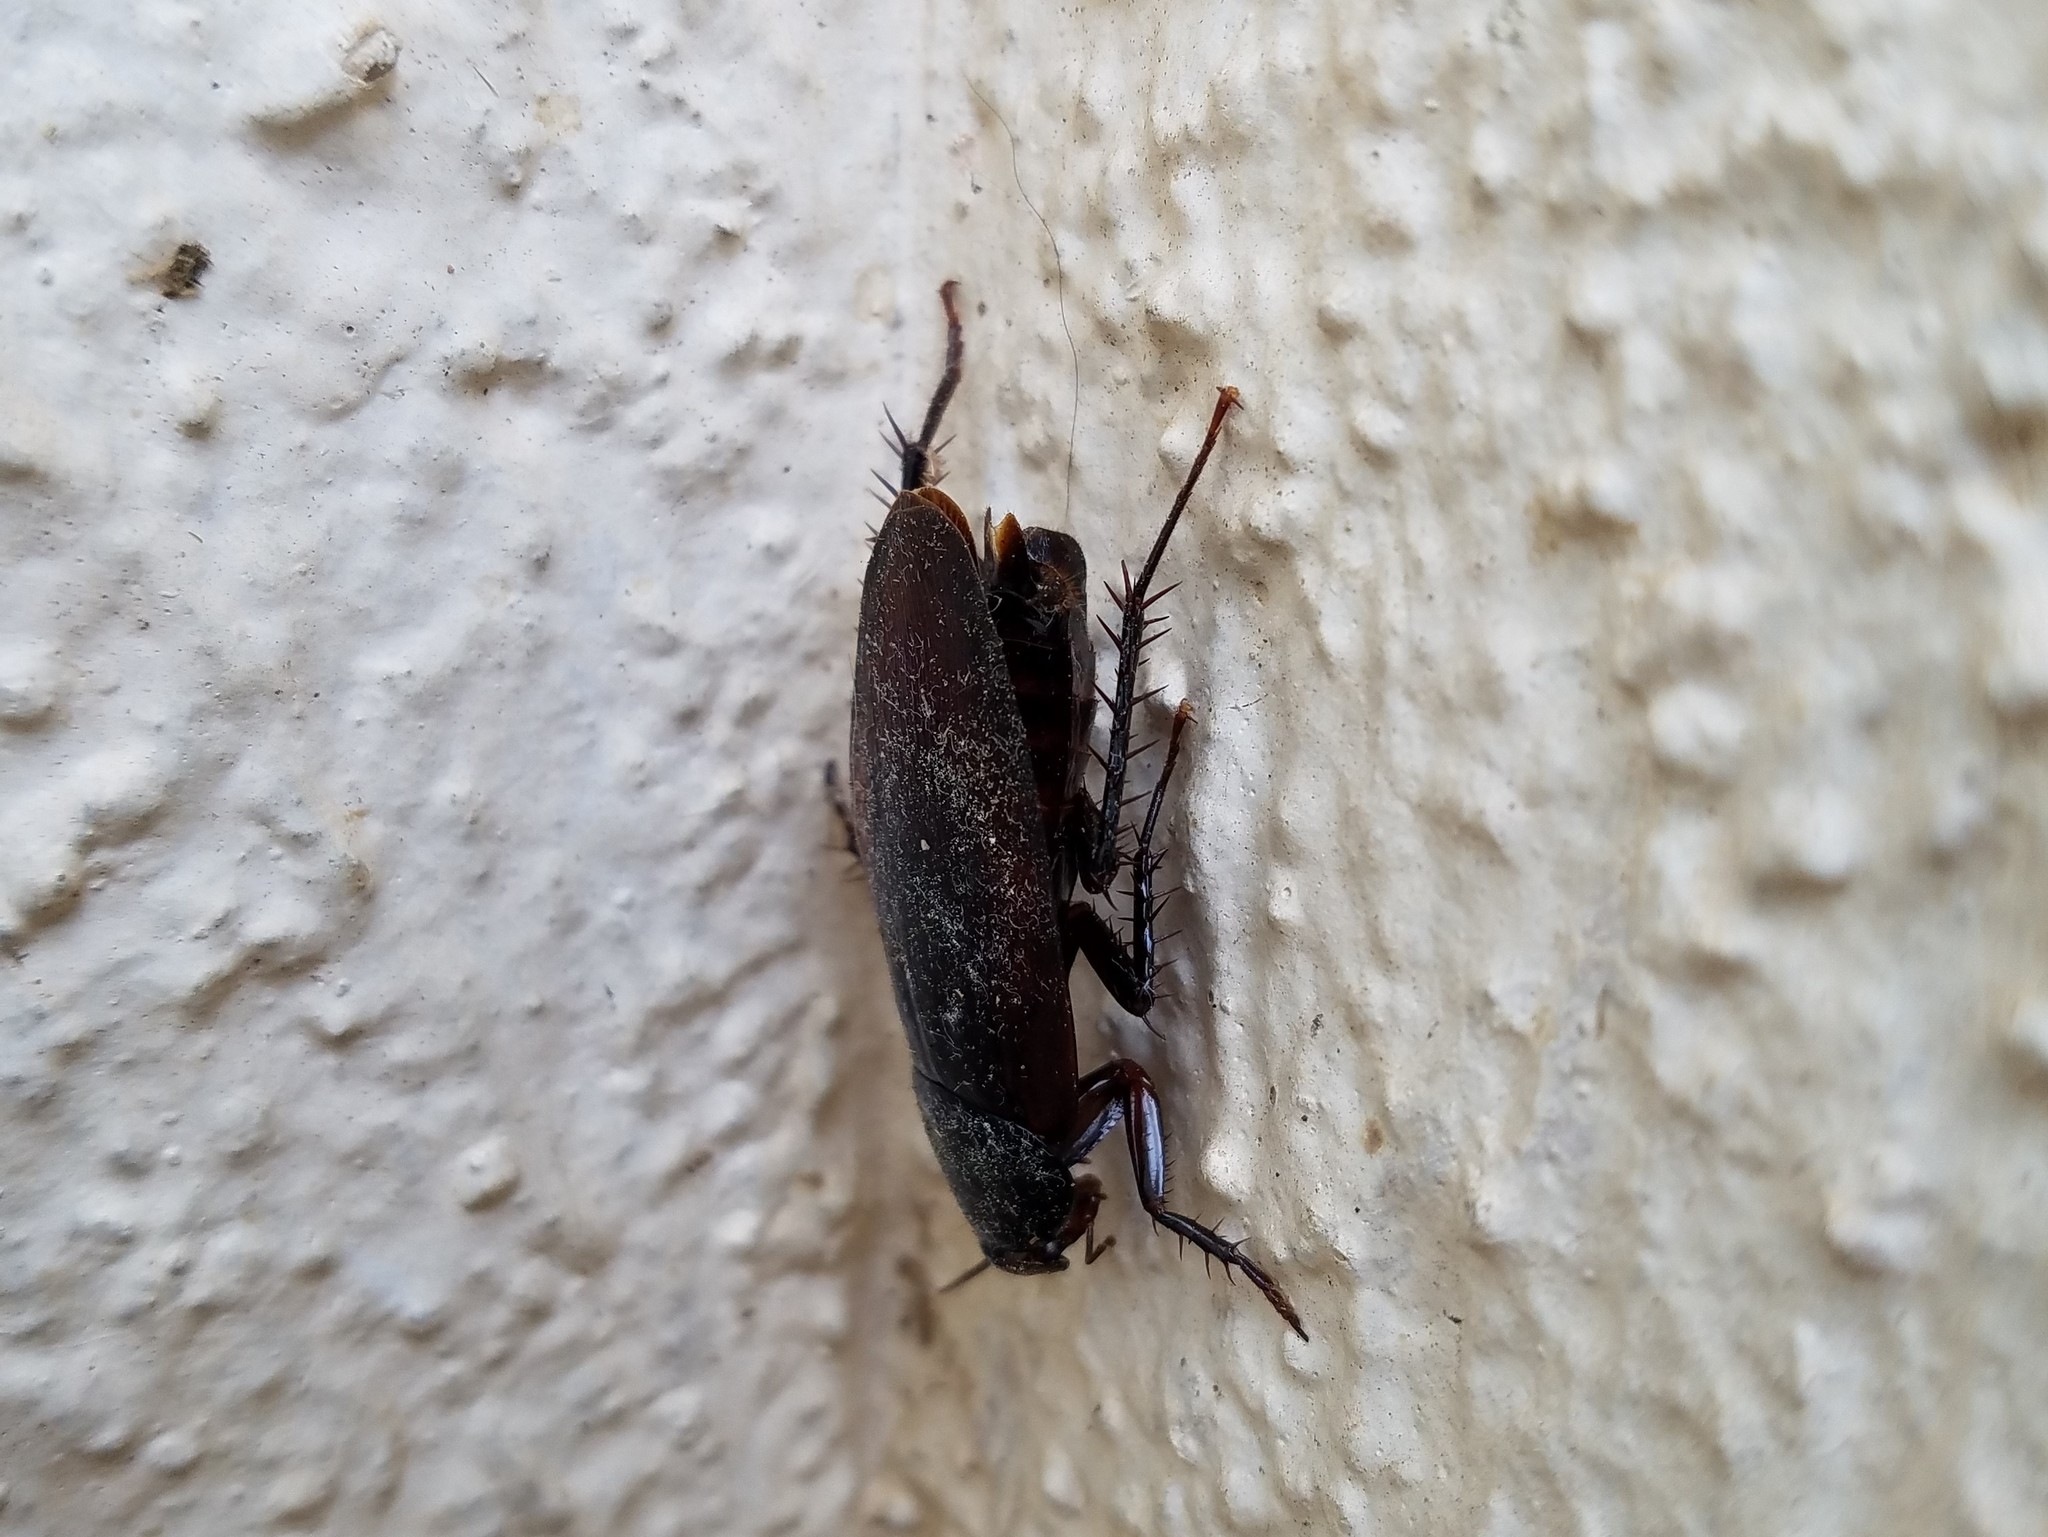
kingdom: Animalia
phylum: Arthropoda
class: Insecta
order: Blattodea
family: Blattidae
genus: Periplaneta
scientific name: Periplaneta fuliginosa
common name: Smokeybrown cockroad
